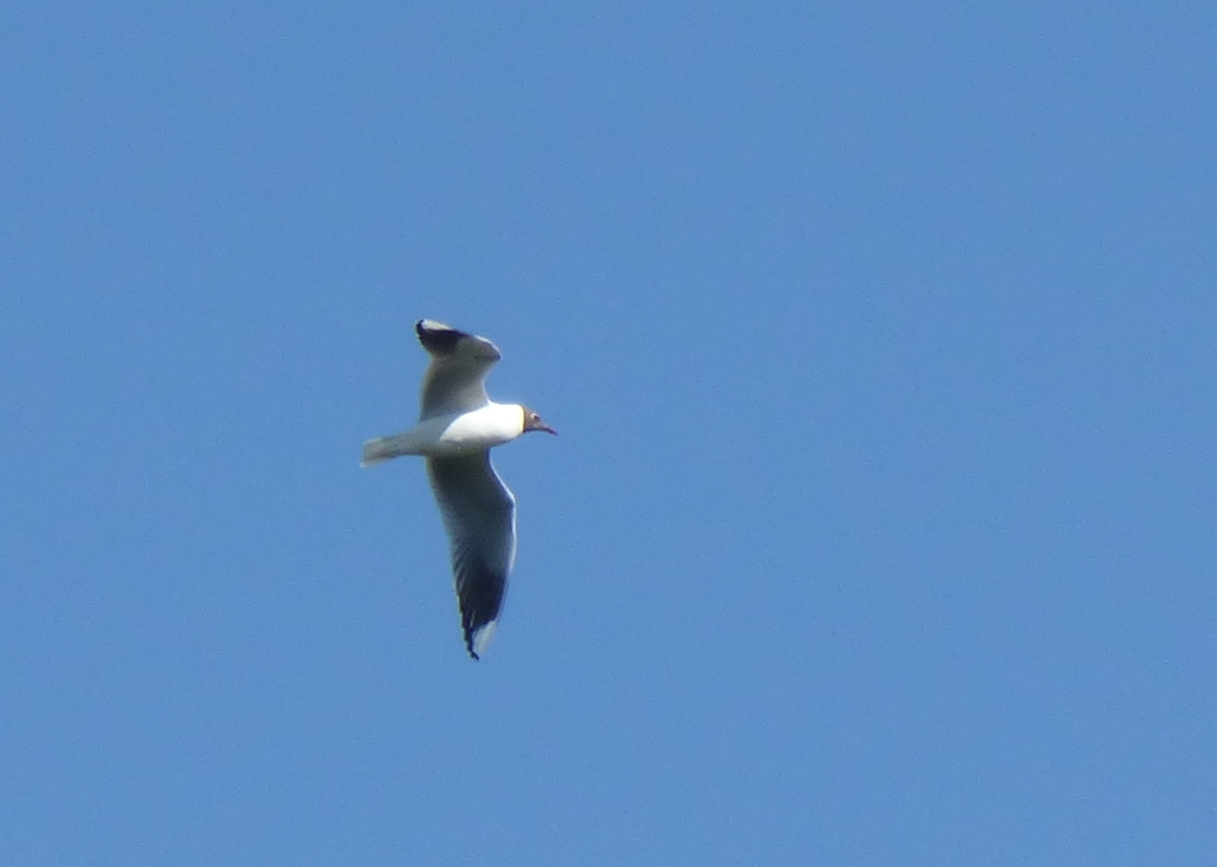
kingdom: Animalia
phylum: Chordata
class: Aves
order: Charadriiformes
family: Laridae
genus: Chroicocephalus
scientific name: Chroicocephalus maculipennis
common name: Brown-hooded gull
